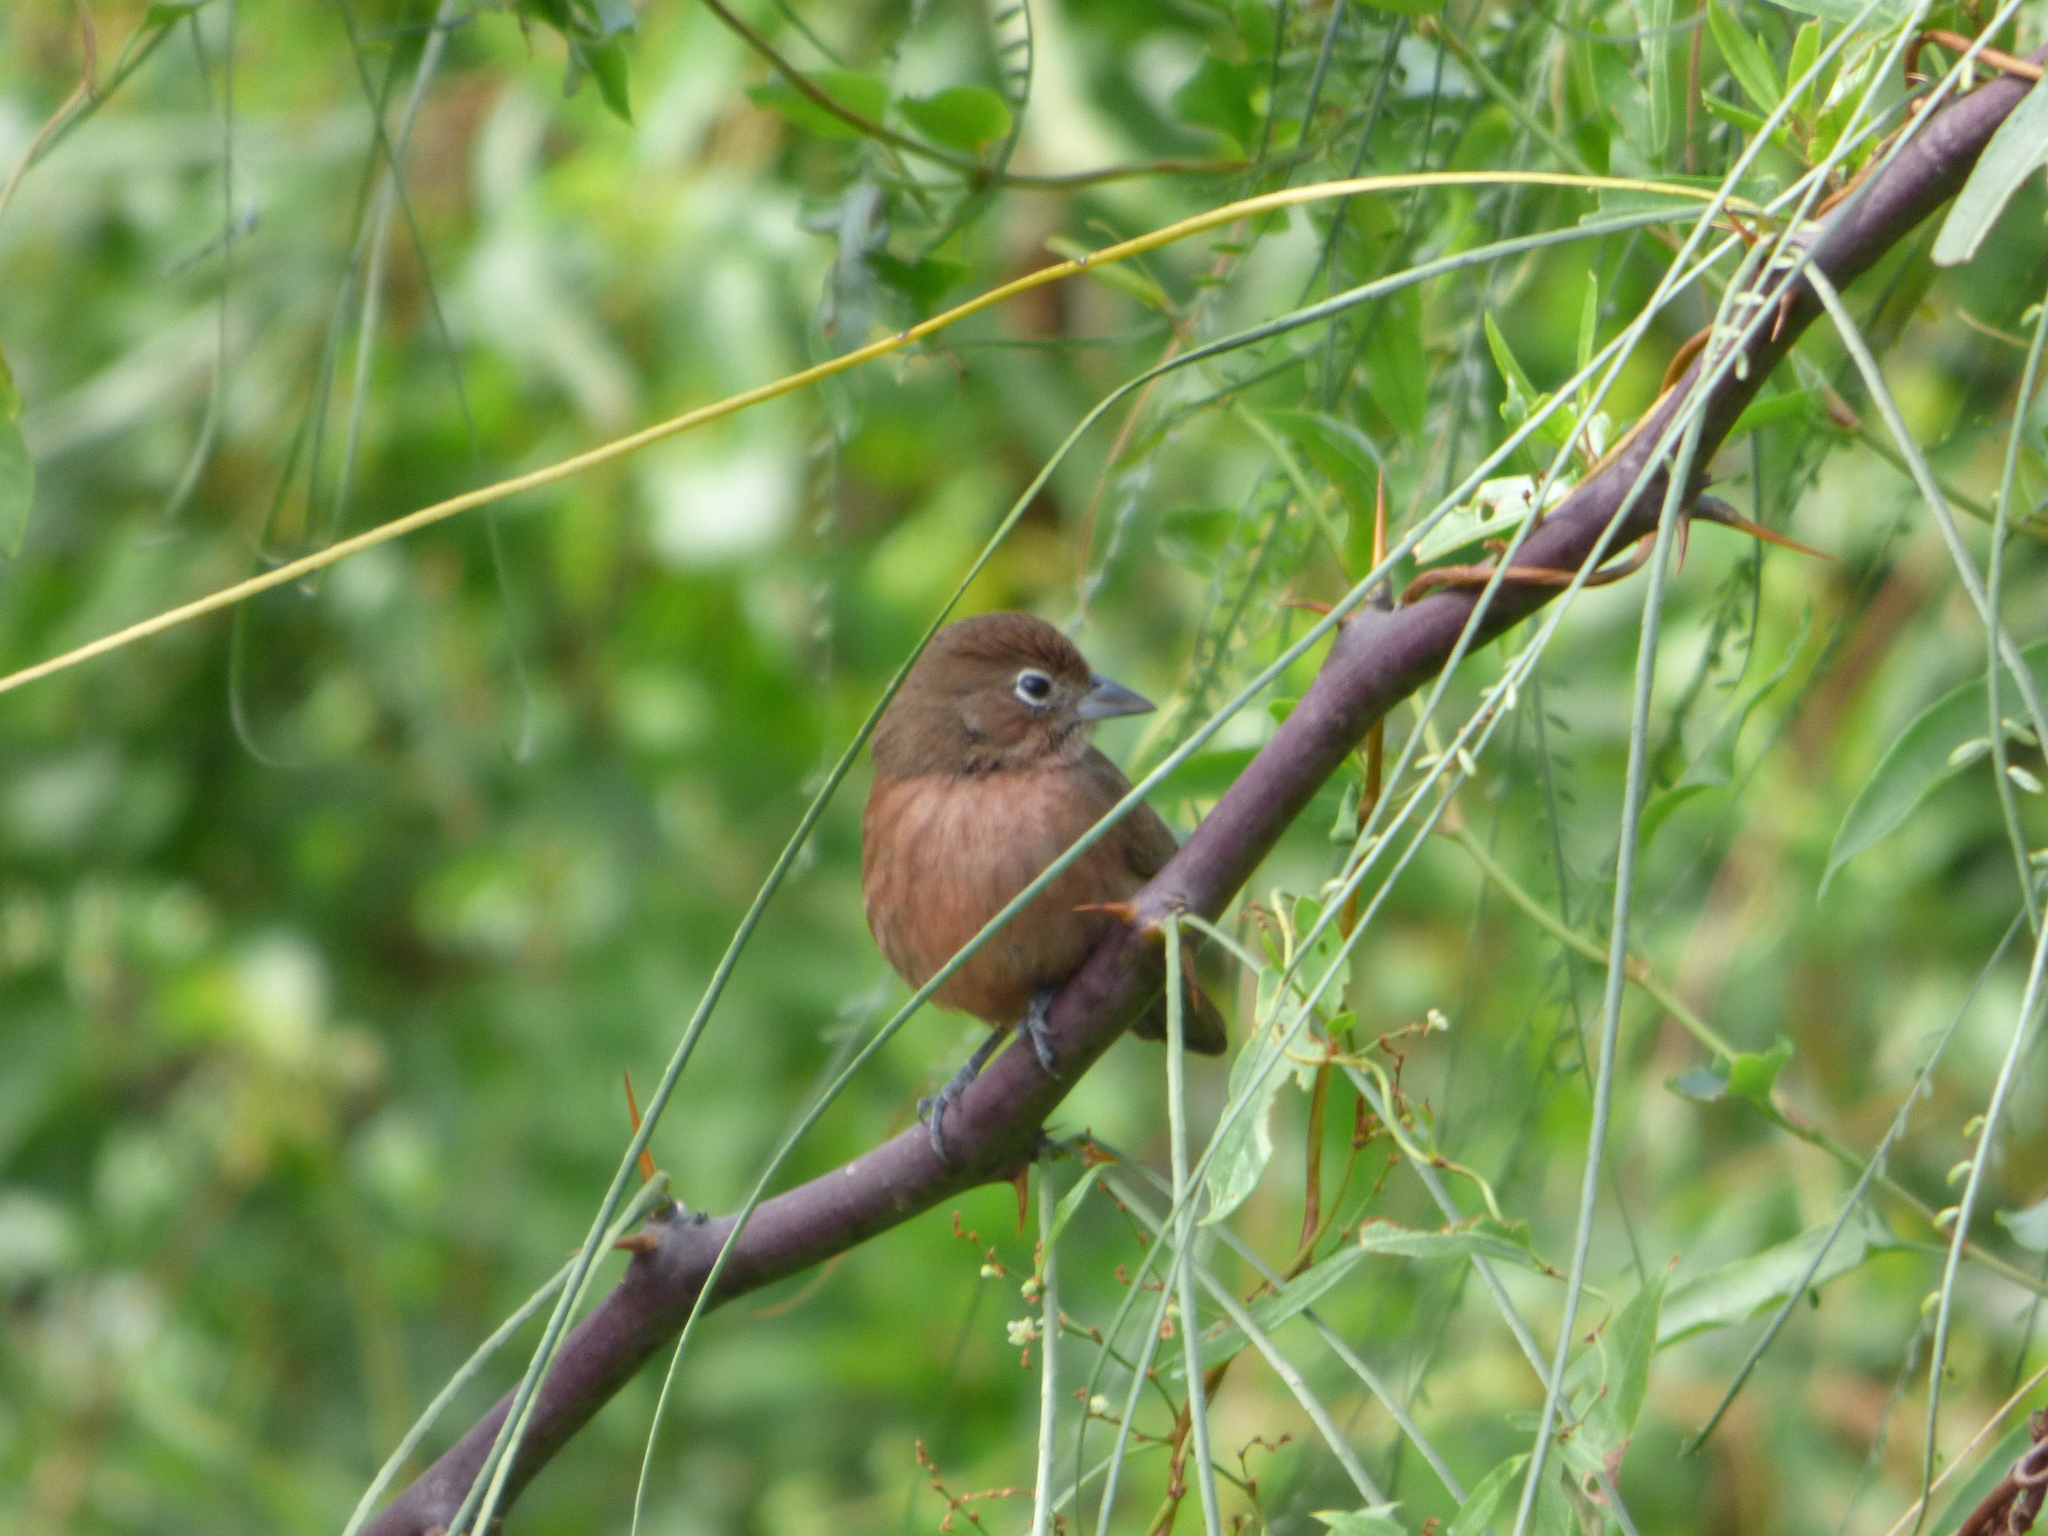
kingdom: Animalia
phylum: Chordata
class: Aves
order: Passeriformes
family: Thraupidae
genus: Coryphospingus
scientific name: Coryphospingus cucullatus
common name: Red pileated finch
